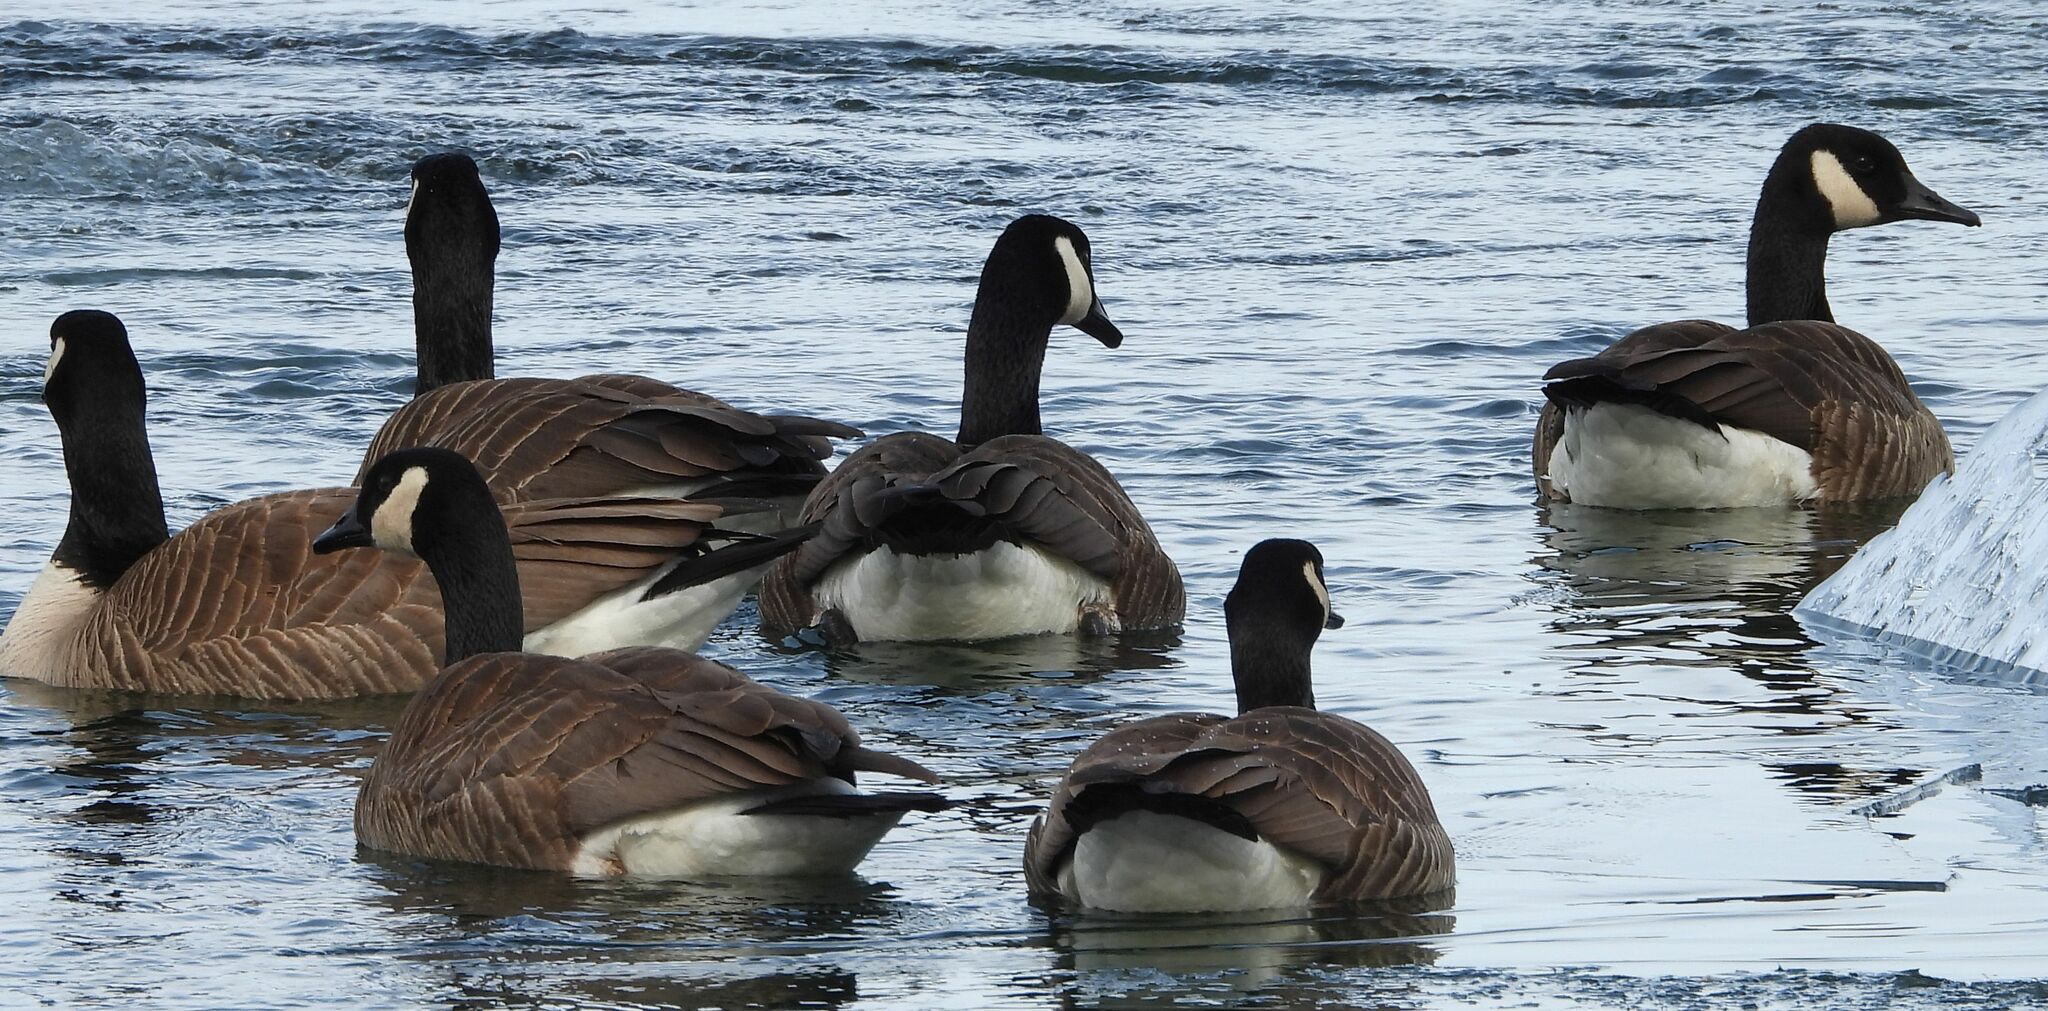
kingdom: Animalia
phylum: Chordata
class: Aves
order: Anseriformes
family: Anatidae
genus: Branta
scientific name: Branta canadensis
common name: Canada goose
